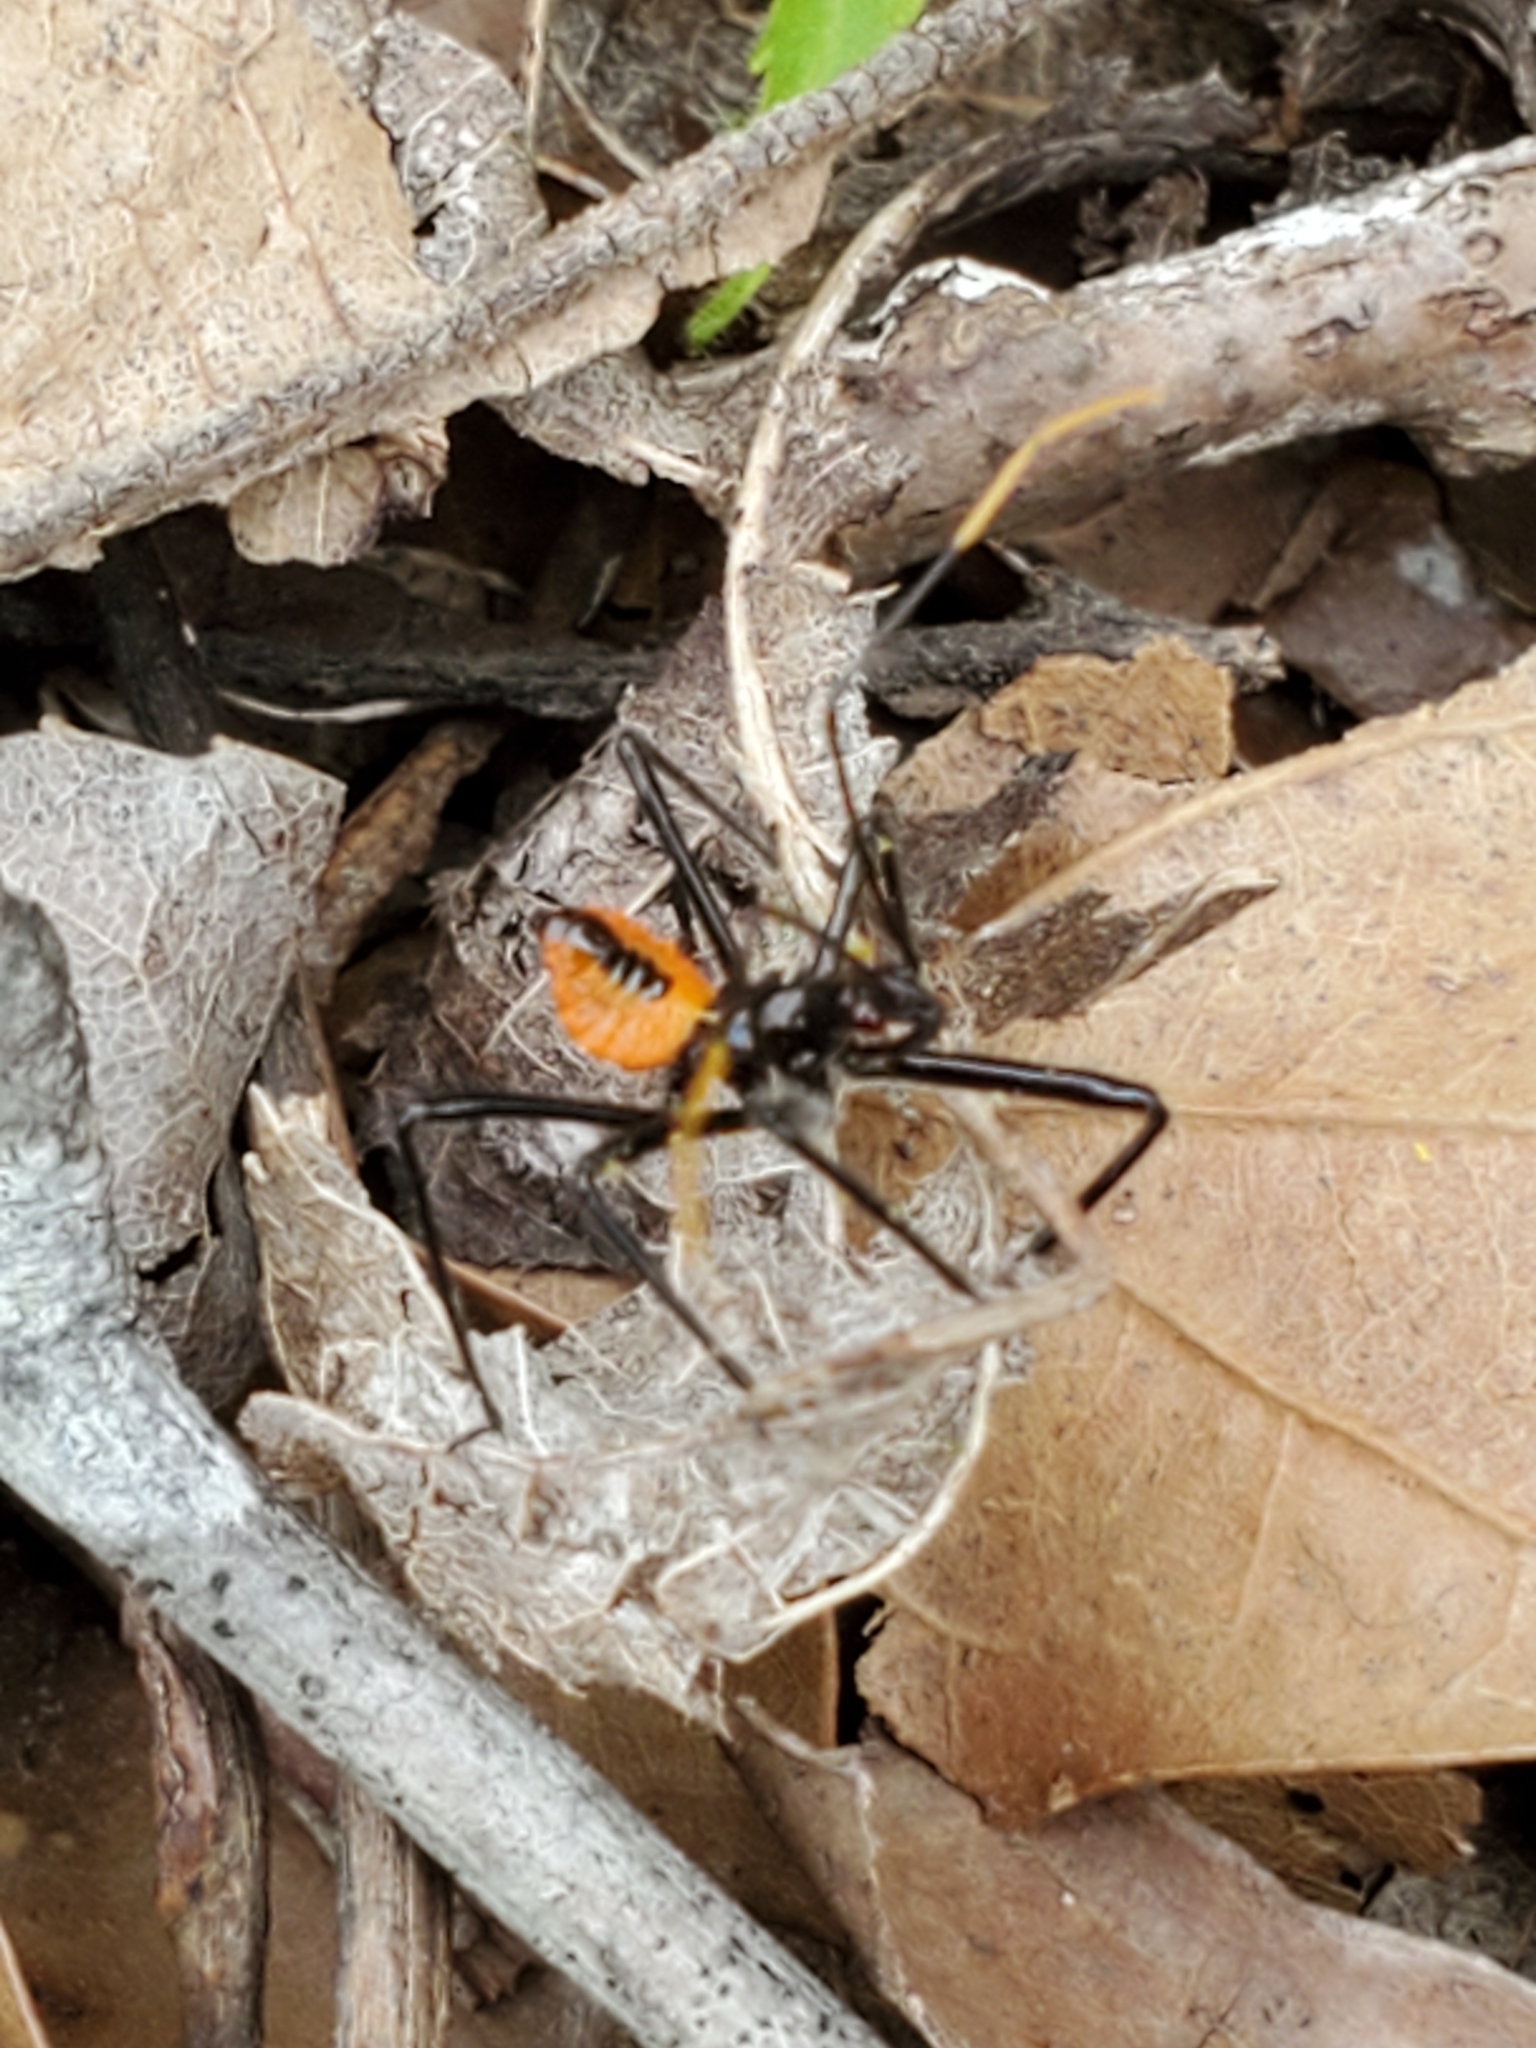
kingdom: Animalia
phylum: Arthropoda
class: Insecta
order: Hemiptera
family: Reduviidae
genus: Arilus
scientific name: Arilus cristatus
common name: North american wheel bug
